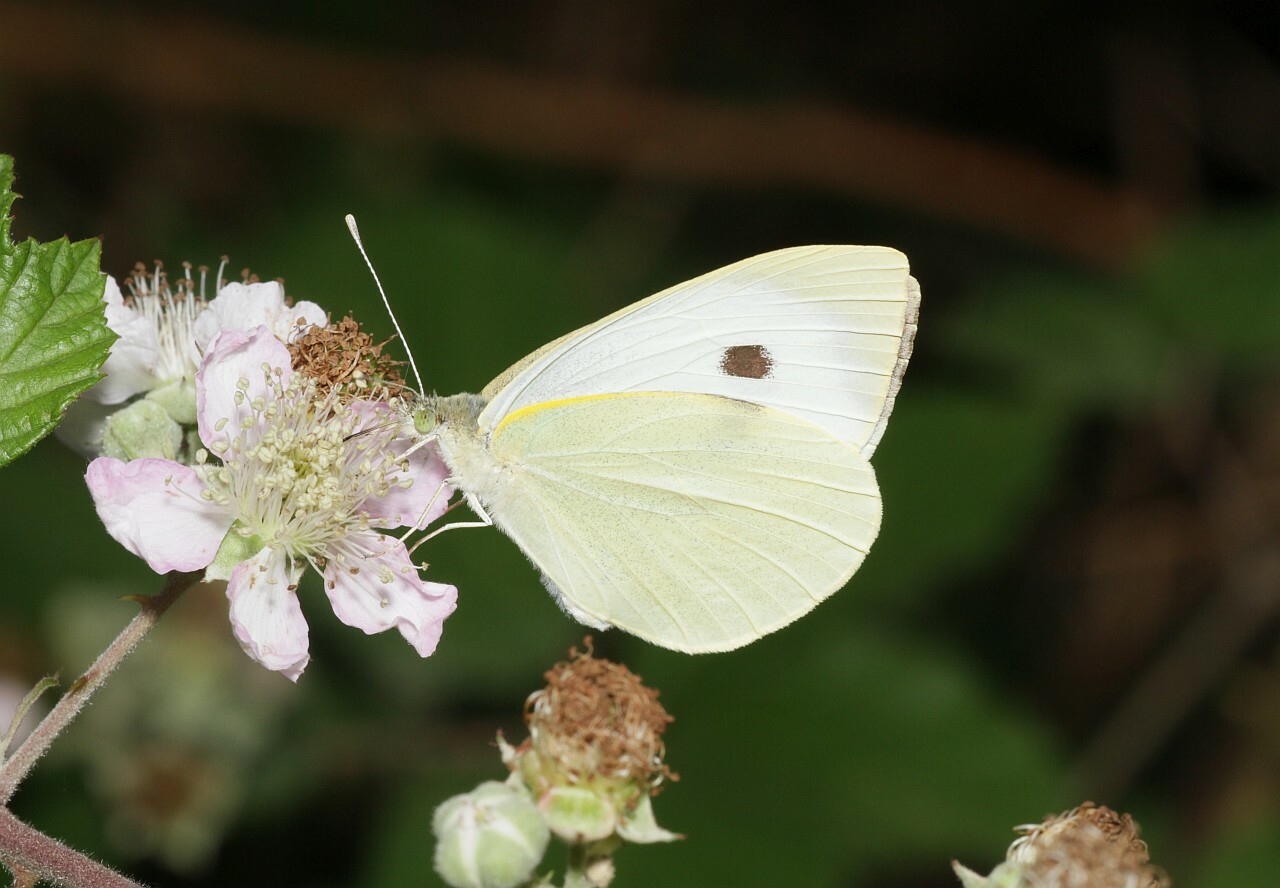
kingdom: Animalia
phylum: Arthropoda
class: Insecta
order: Lepidoptera
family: Pieridae
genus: Pieris
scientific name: Pieris brassicae
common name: Large white
